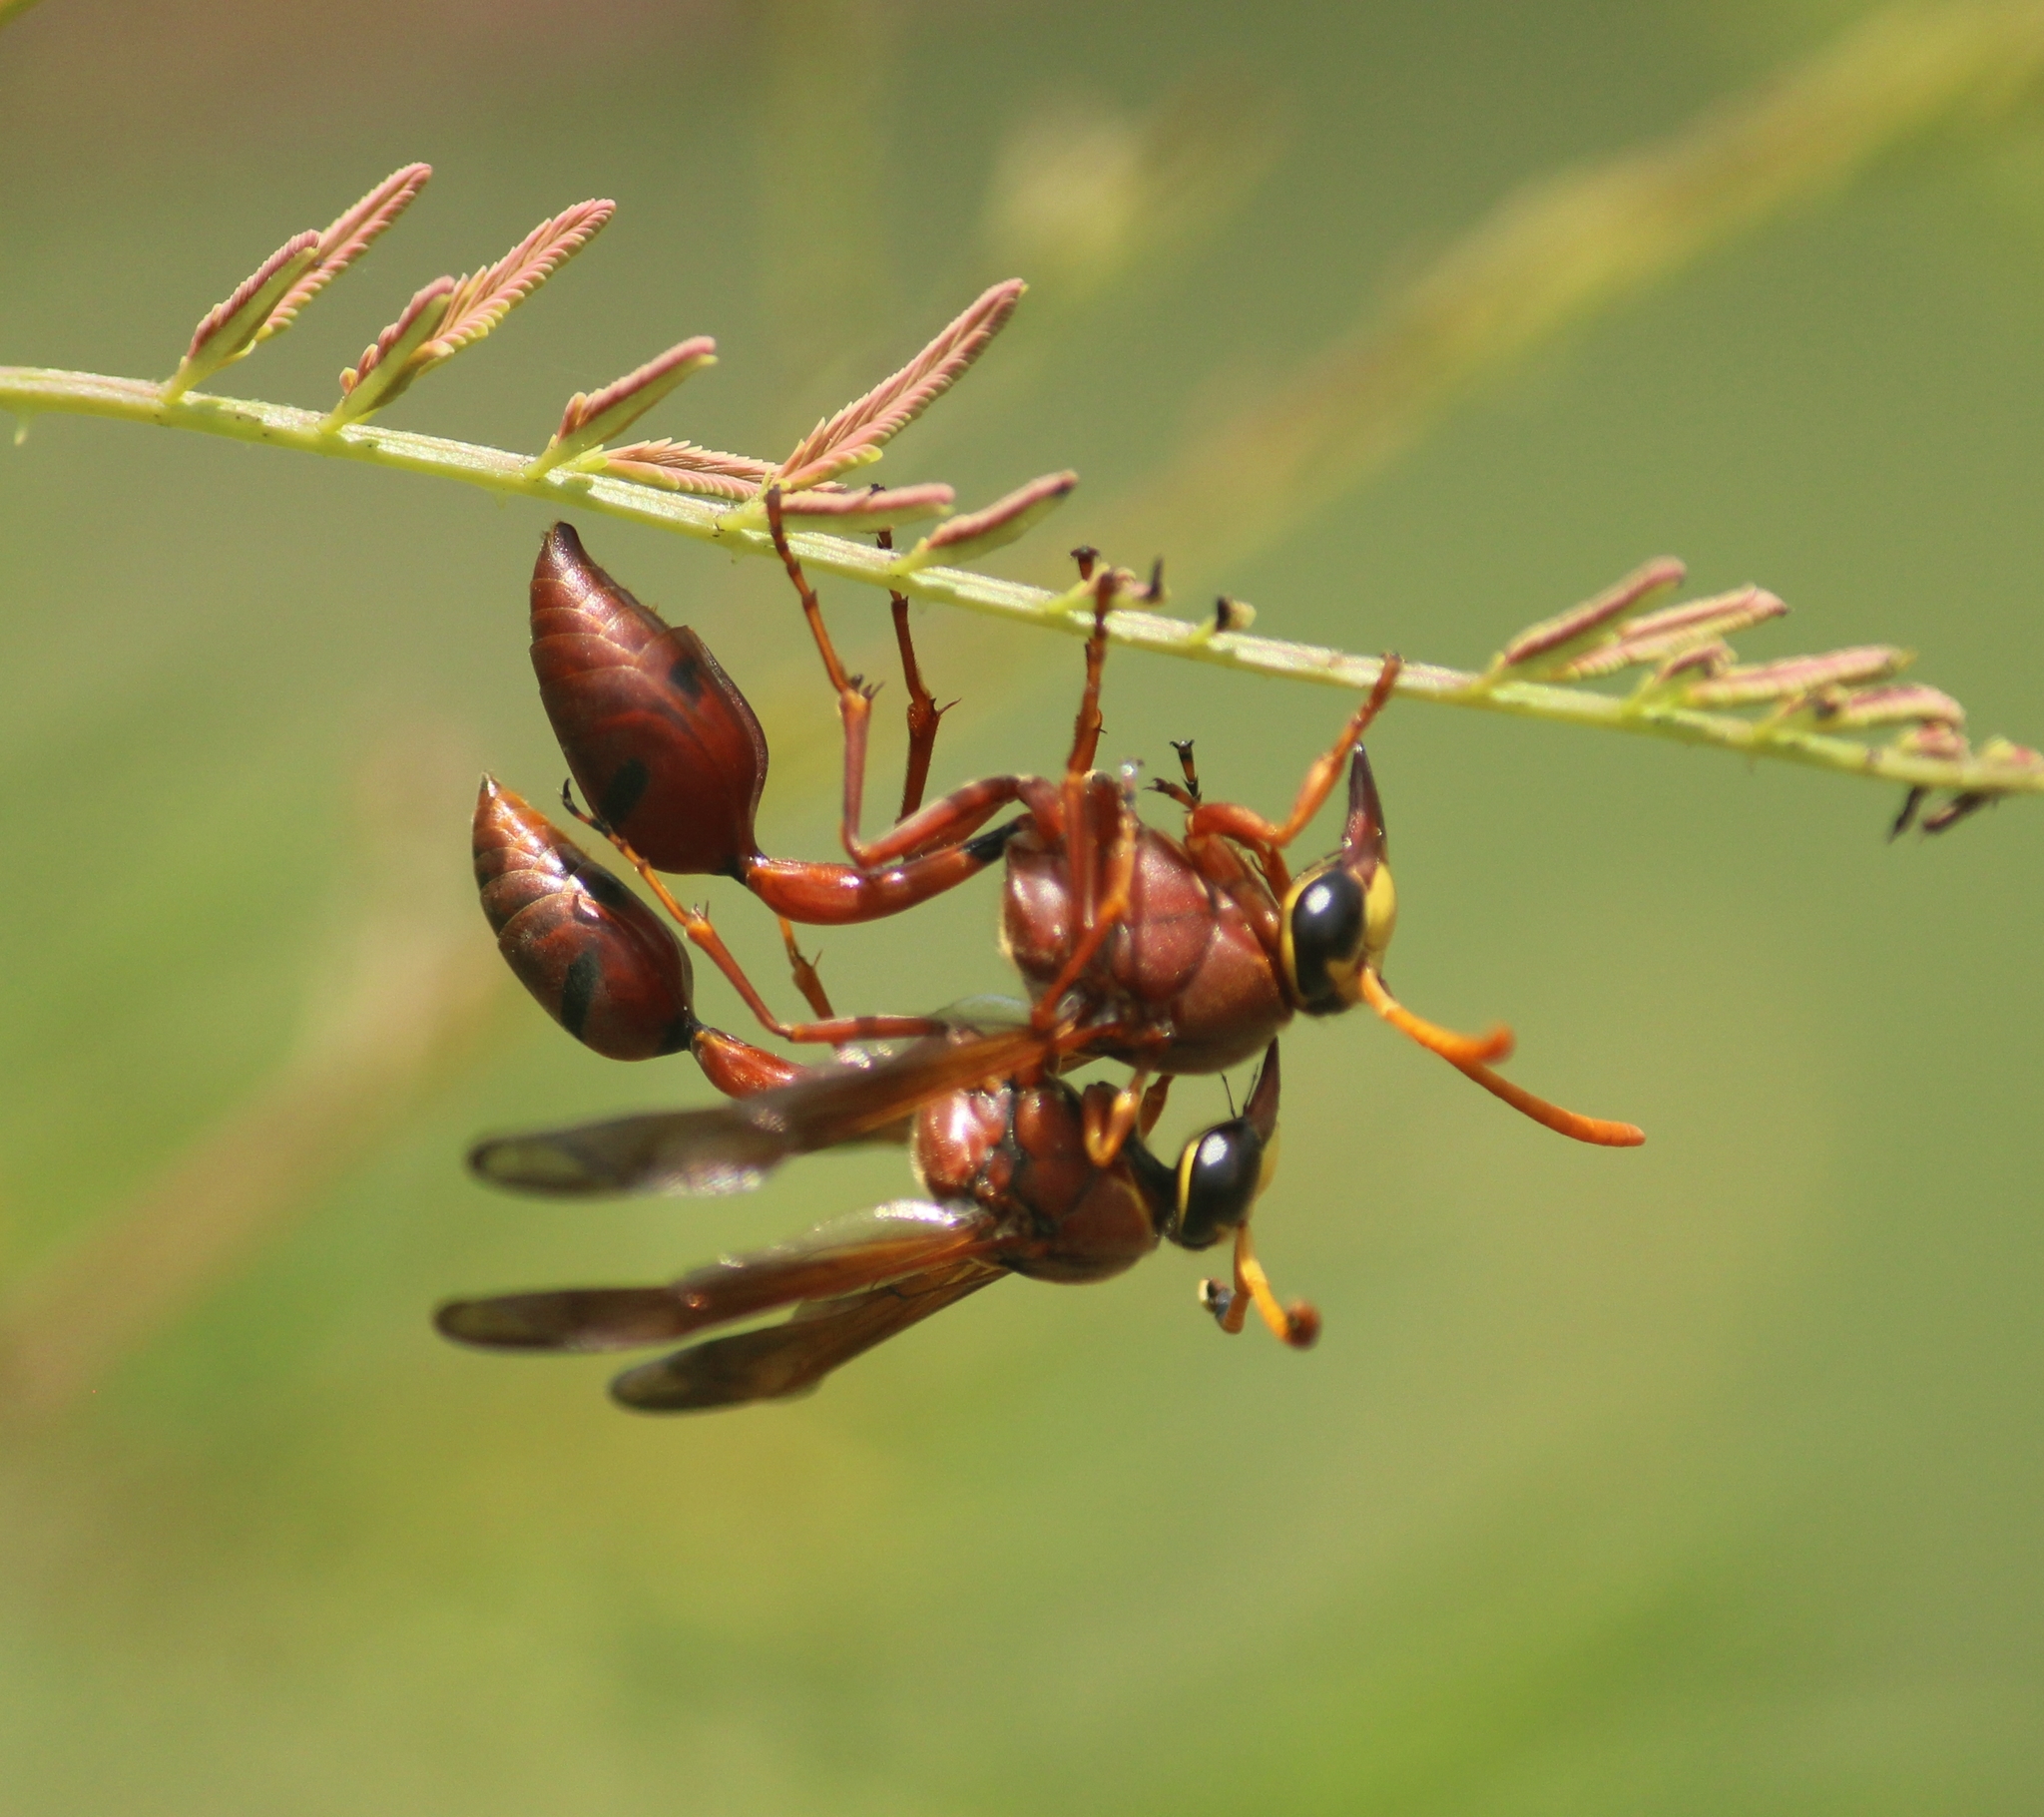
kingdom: Animalia
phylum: Arthropoda
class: Insecta
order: Hymenoptera
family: Eumenidae
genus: Delta
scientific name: Delta conoideum
